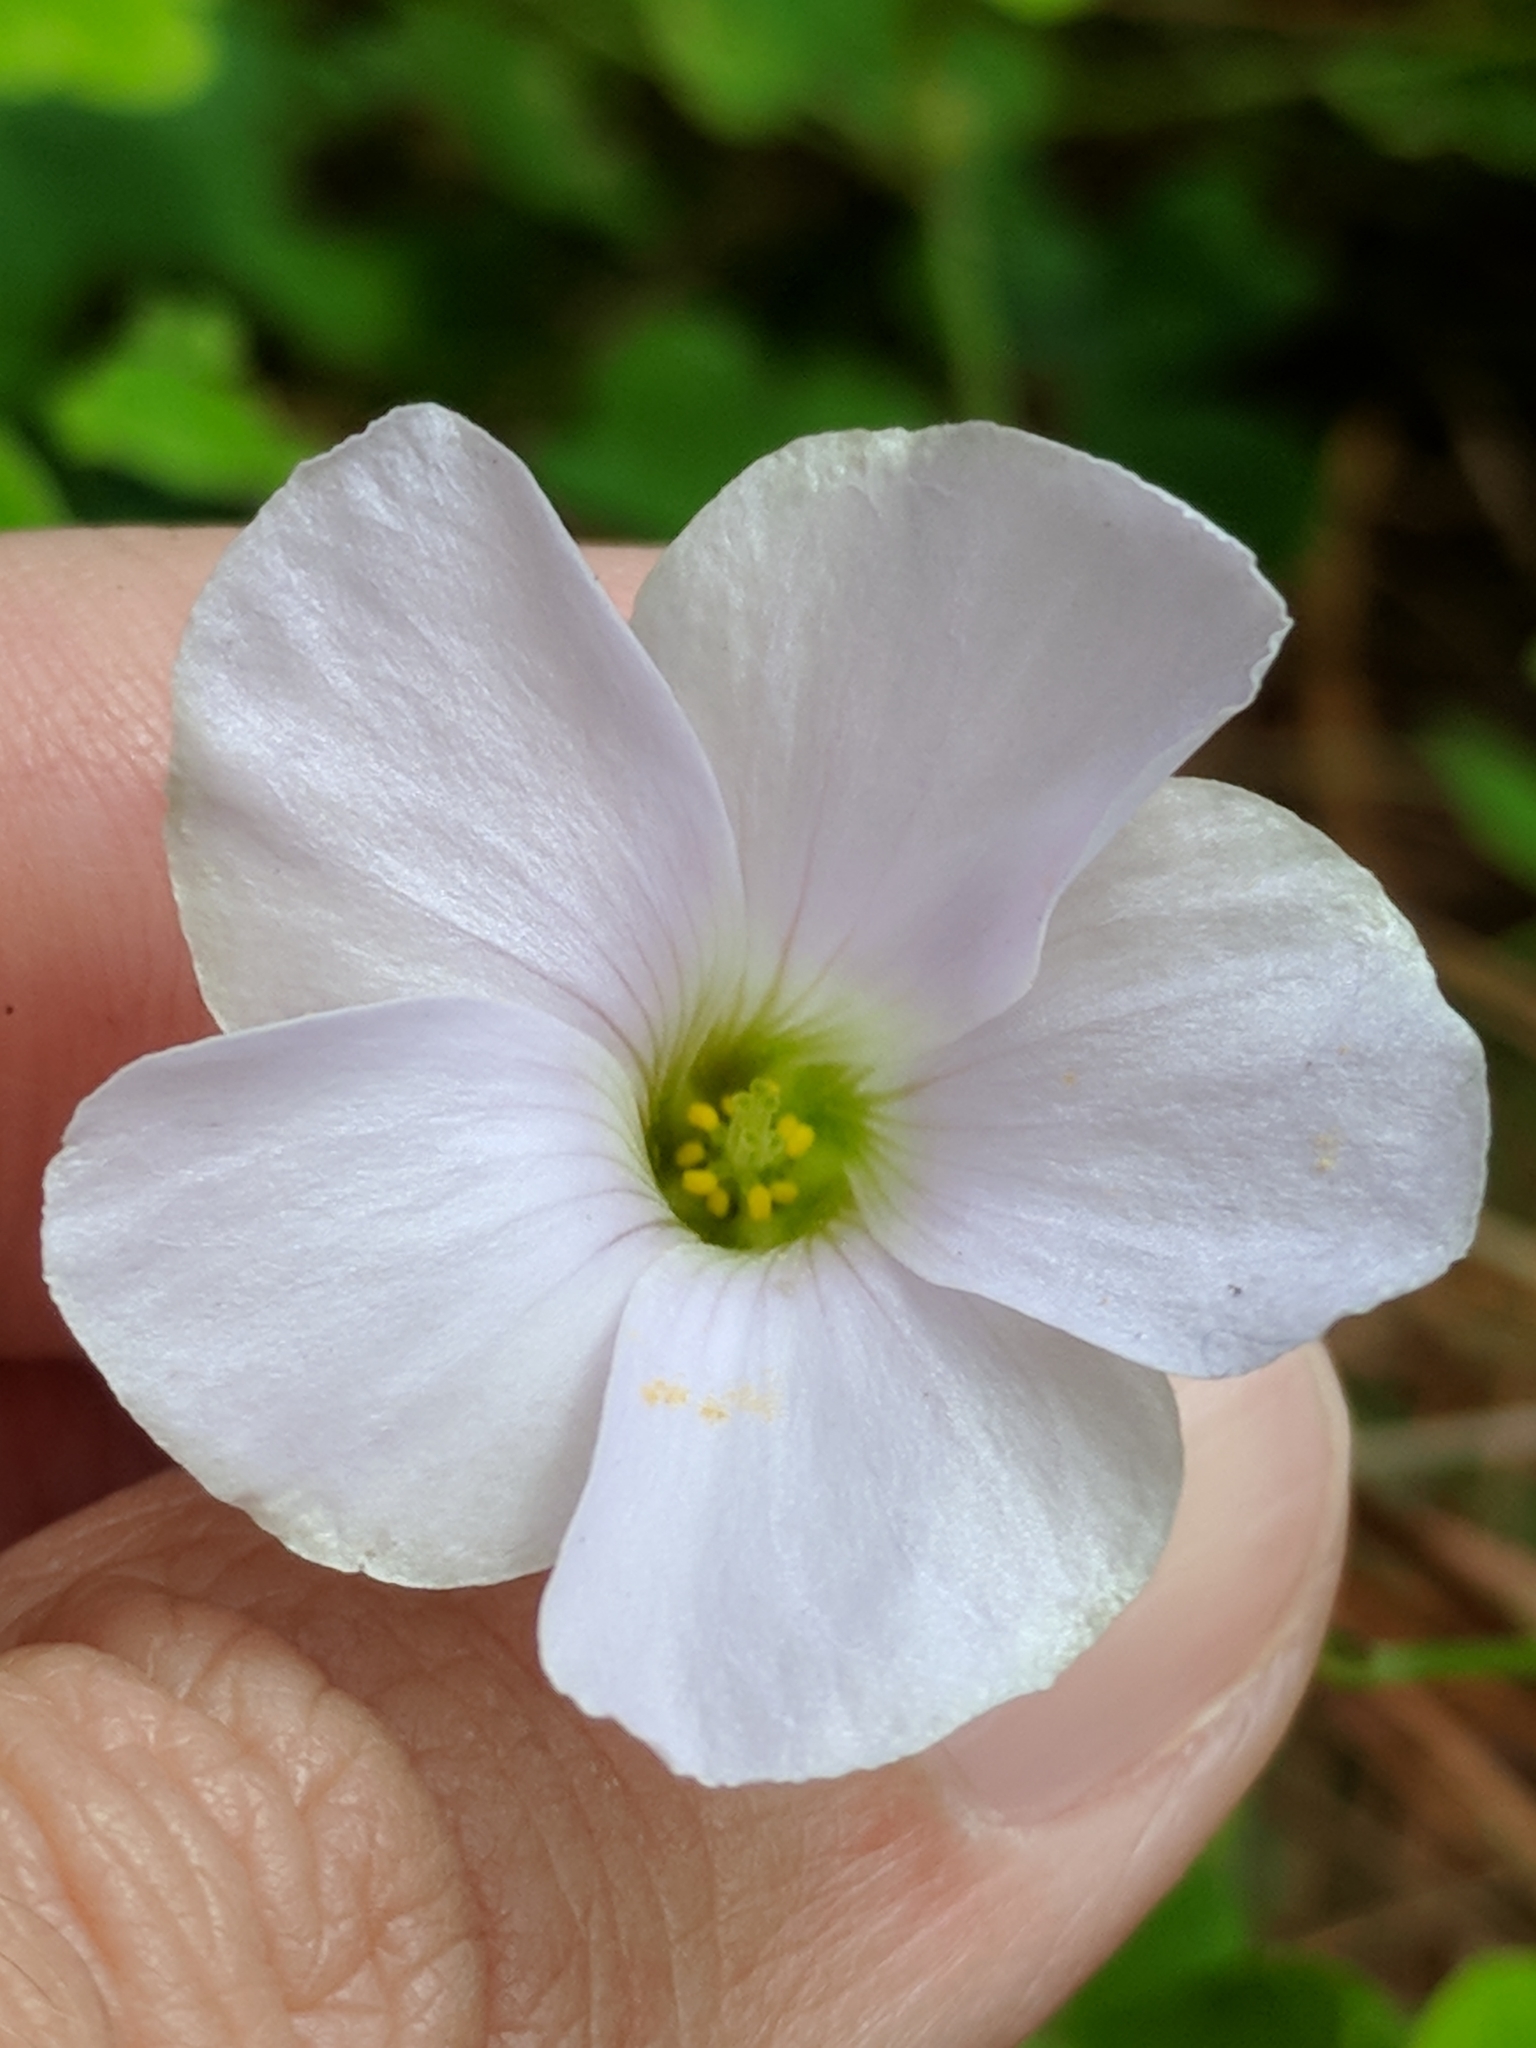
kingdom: Plantae
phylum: Tracheophyta
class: Magnoliopsida
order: Oxalidales
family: Oxalidaceae
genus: Oxalis
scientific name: Oxalis incarnata
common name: Pale pink-sorrel
